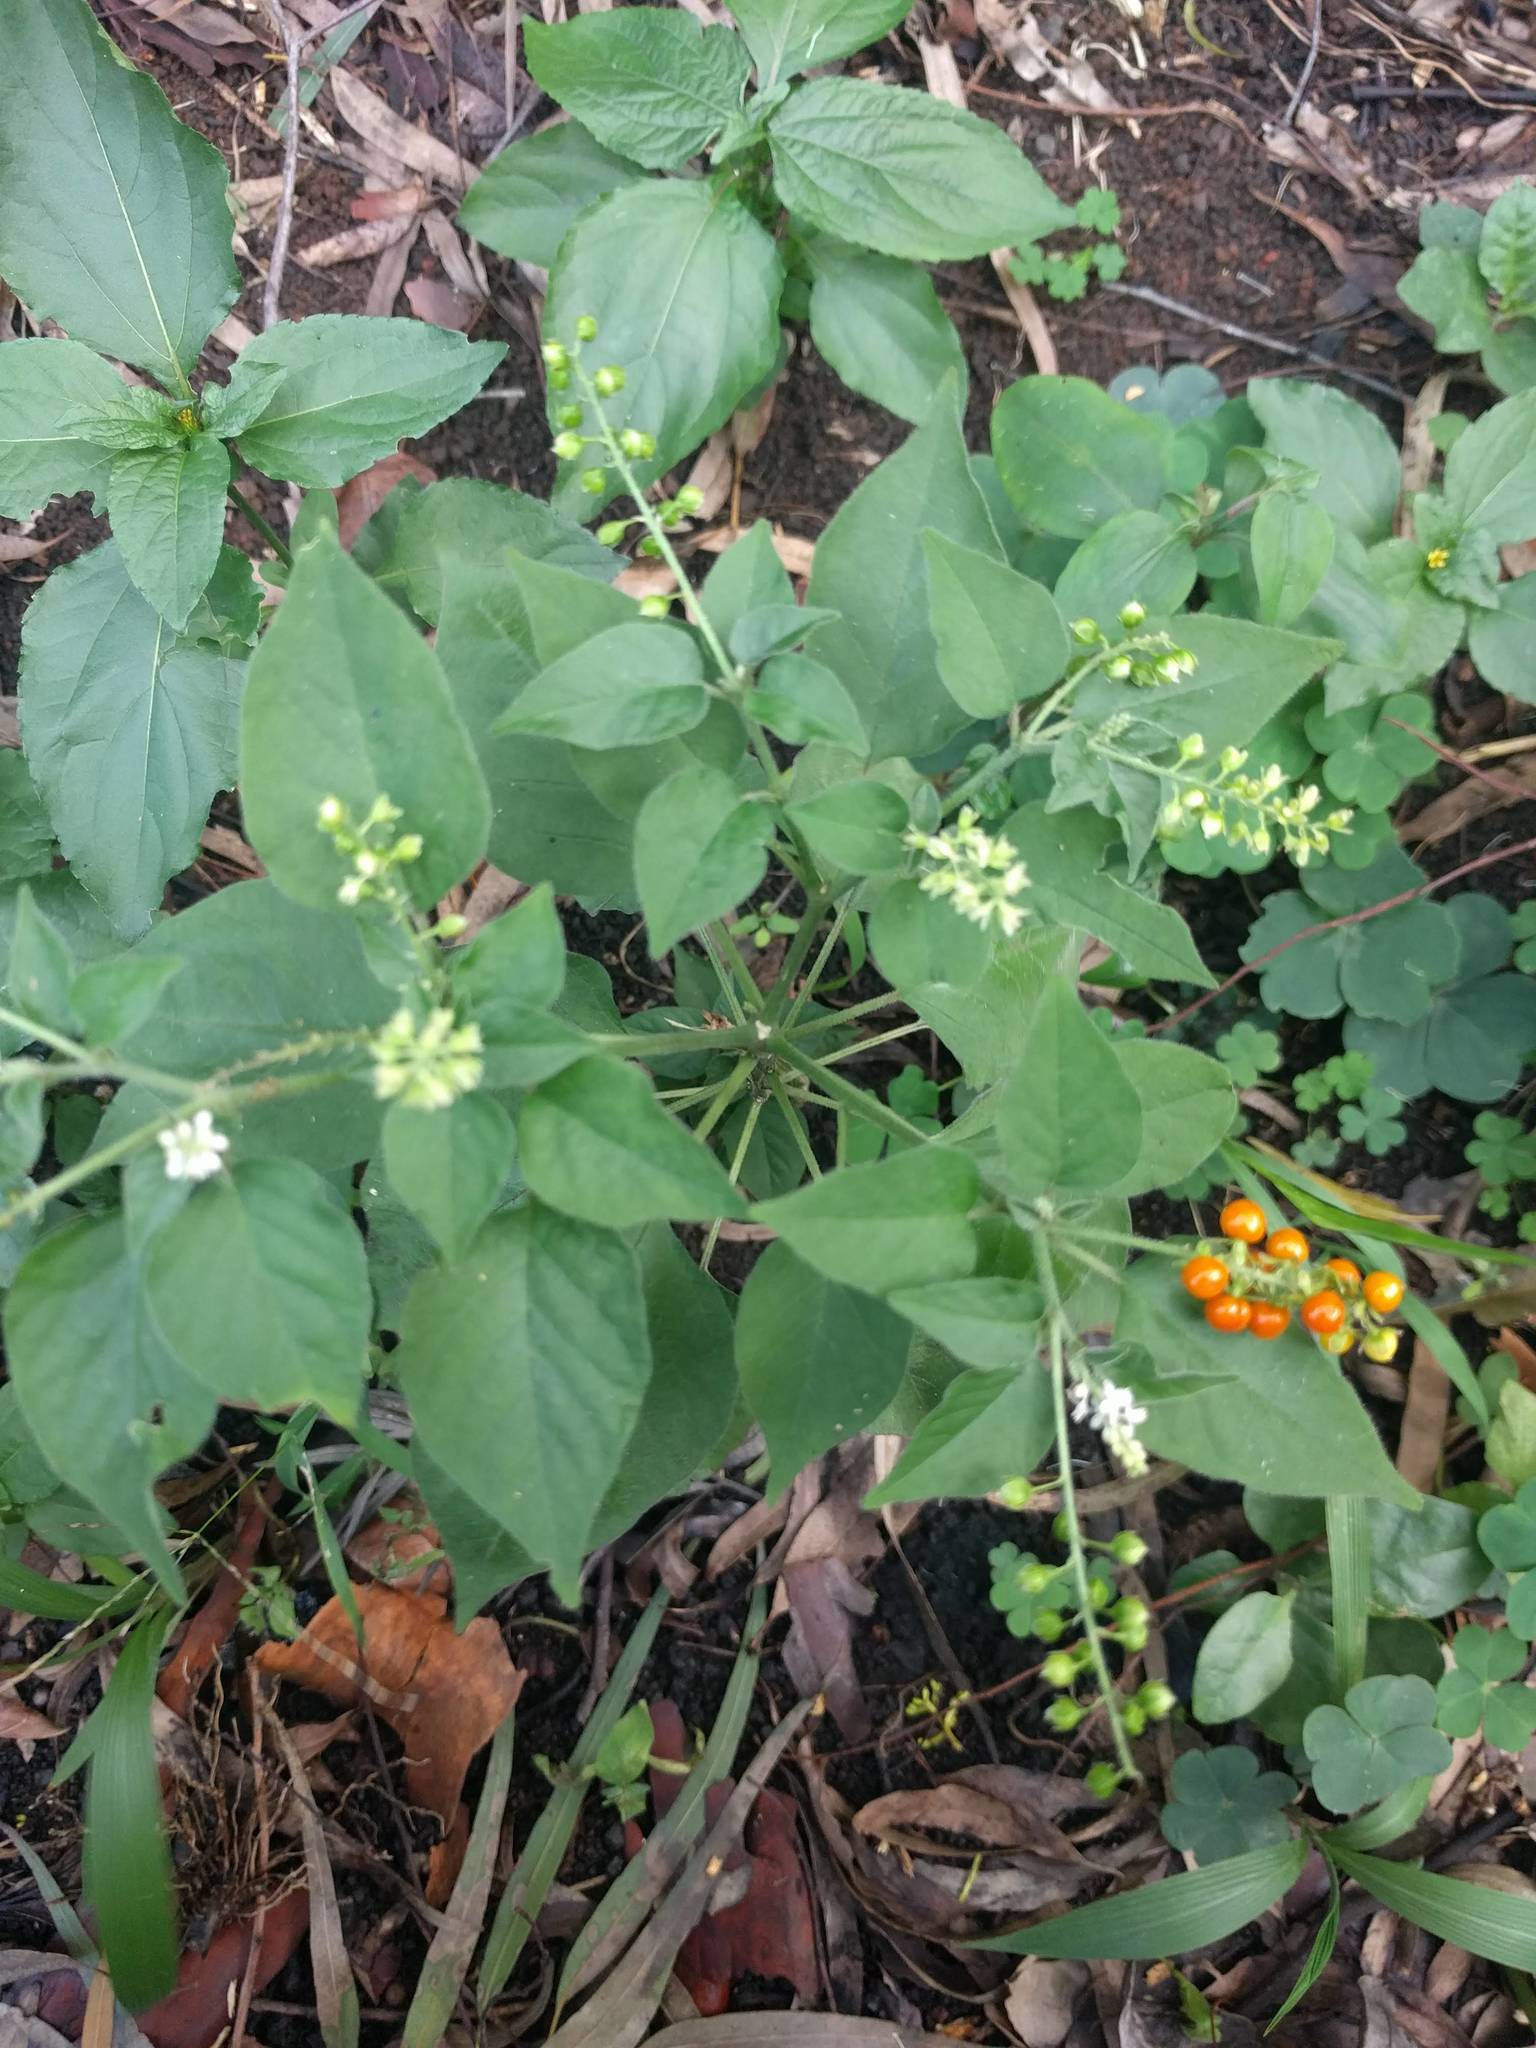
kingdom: Plantae
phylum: Tracheophyta
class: Magnoliopsida
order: Caryophyllales
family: Phytolaccaceae
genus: Rivina
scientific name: Rivina humilis
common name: Rougeplant
